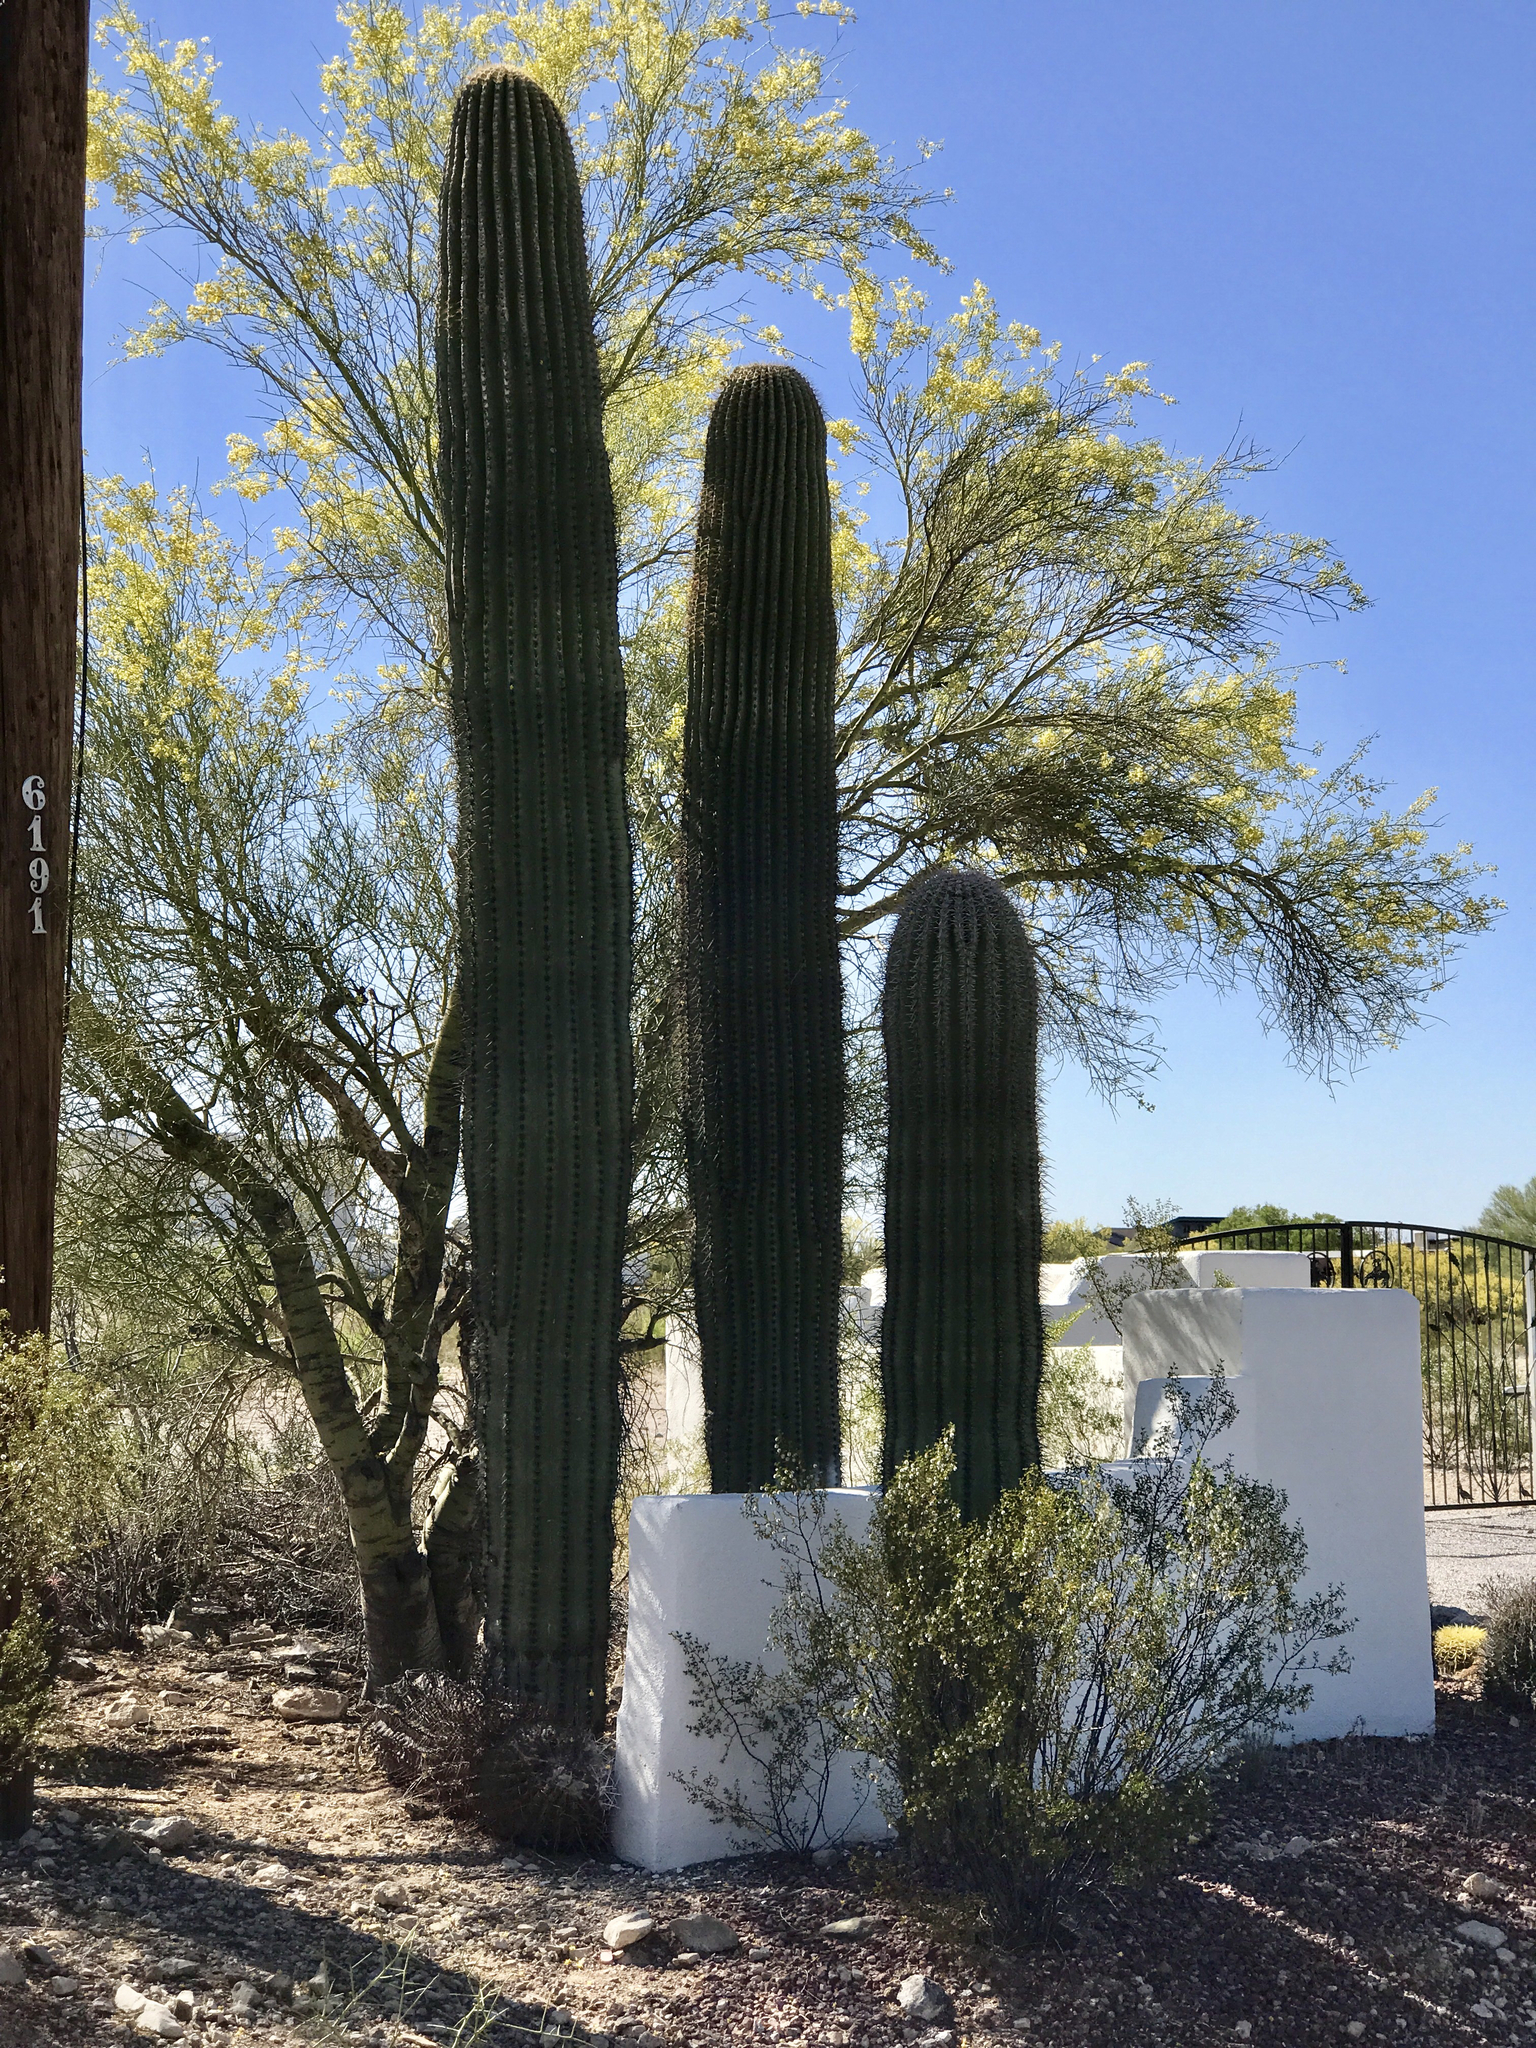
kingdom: Plantae
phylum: Tracheophyta
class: Magnoliopsida
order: Zygophyllales
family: Zygophyllaceae
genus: Larrea
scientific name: Larrea tridentata
